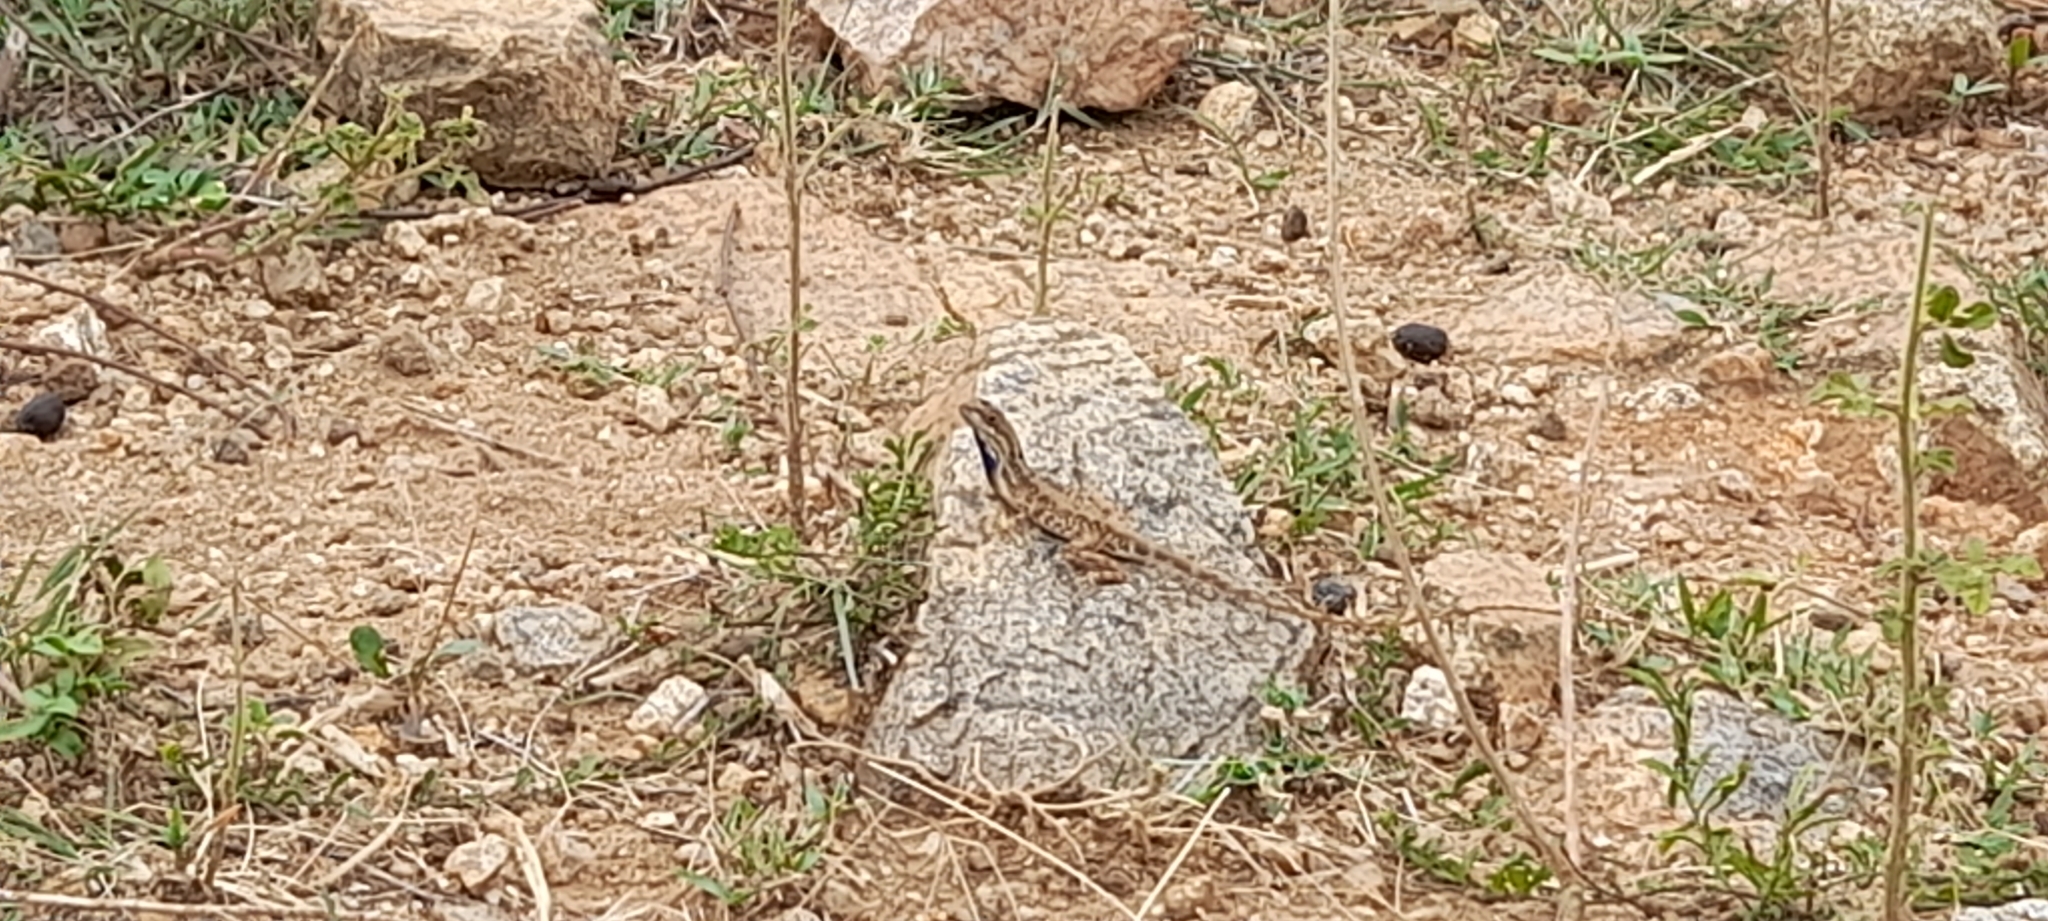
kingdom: Animalia
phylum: Chordata
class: Squamata
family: Agamidae
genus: Sitana
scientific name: Sitana ponticeriana
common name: Pondichéry fan throated lizard
